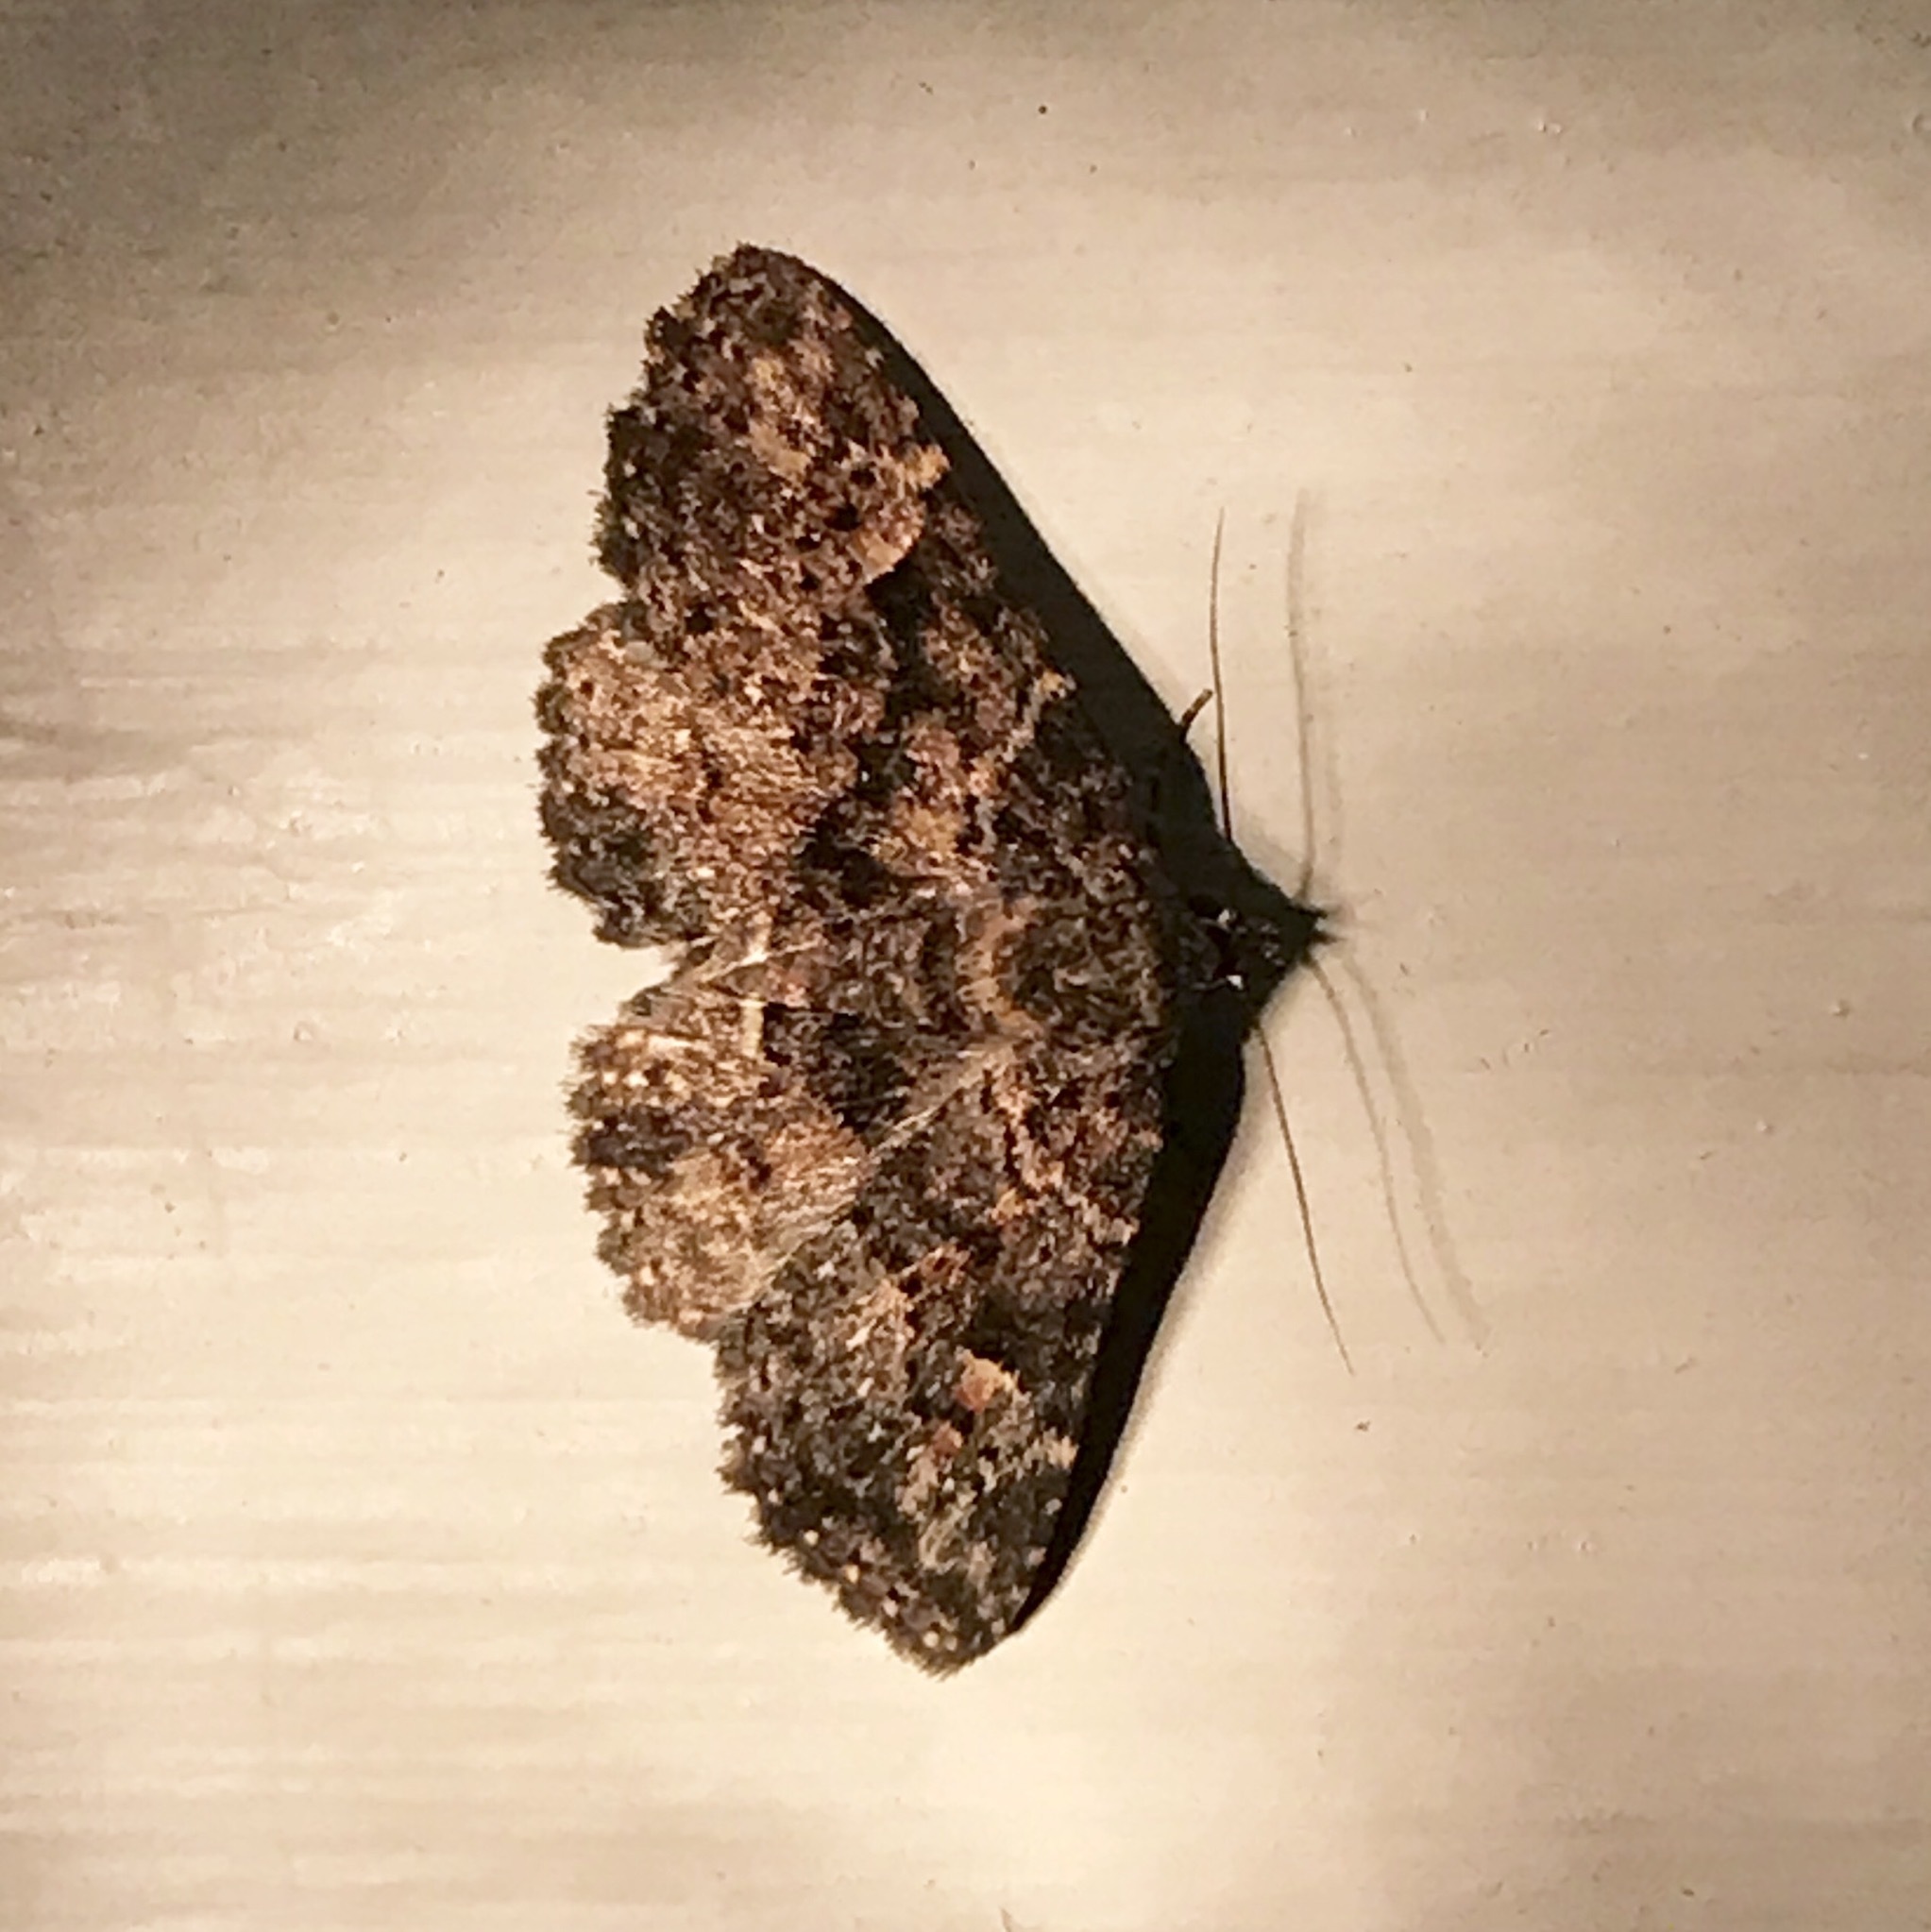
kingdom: Animalia
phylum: Arthropoda
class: Insecta
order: Lepidoptera
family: Erebidae
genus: Metalectra
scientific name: Metalectra discalis
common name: Common fungus moth
